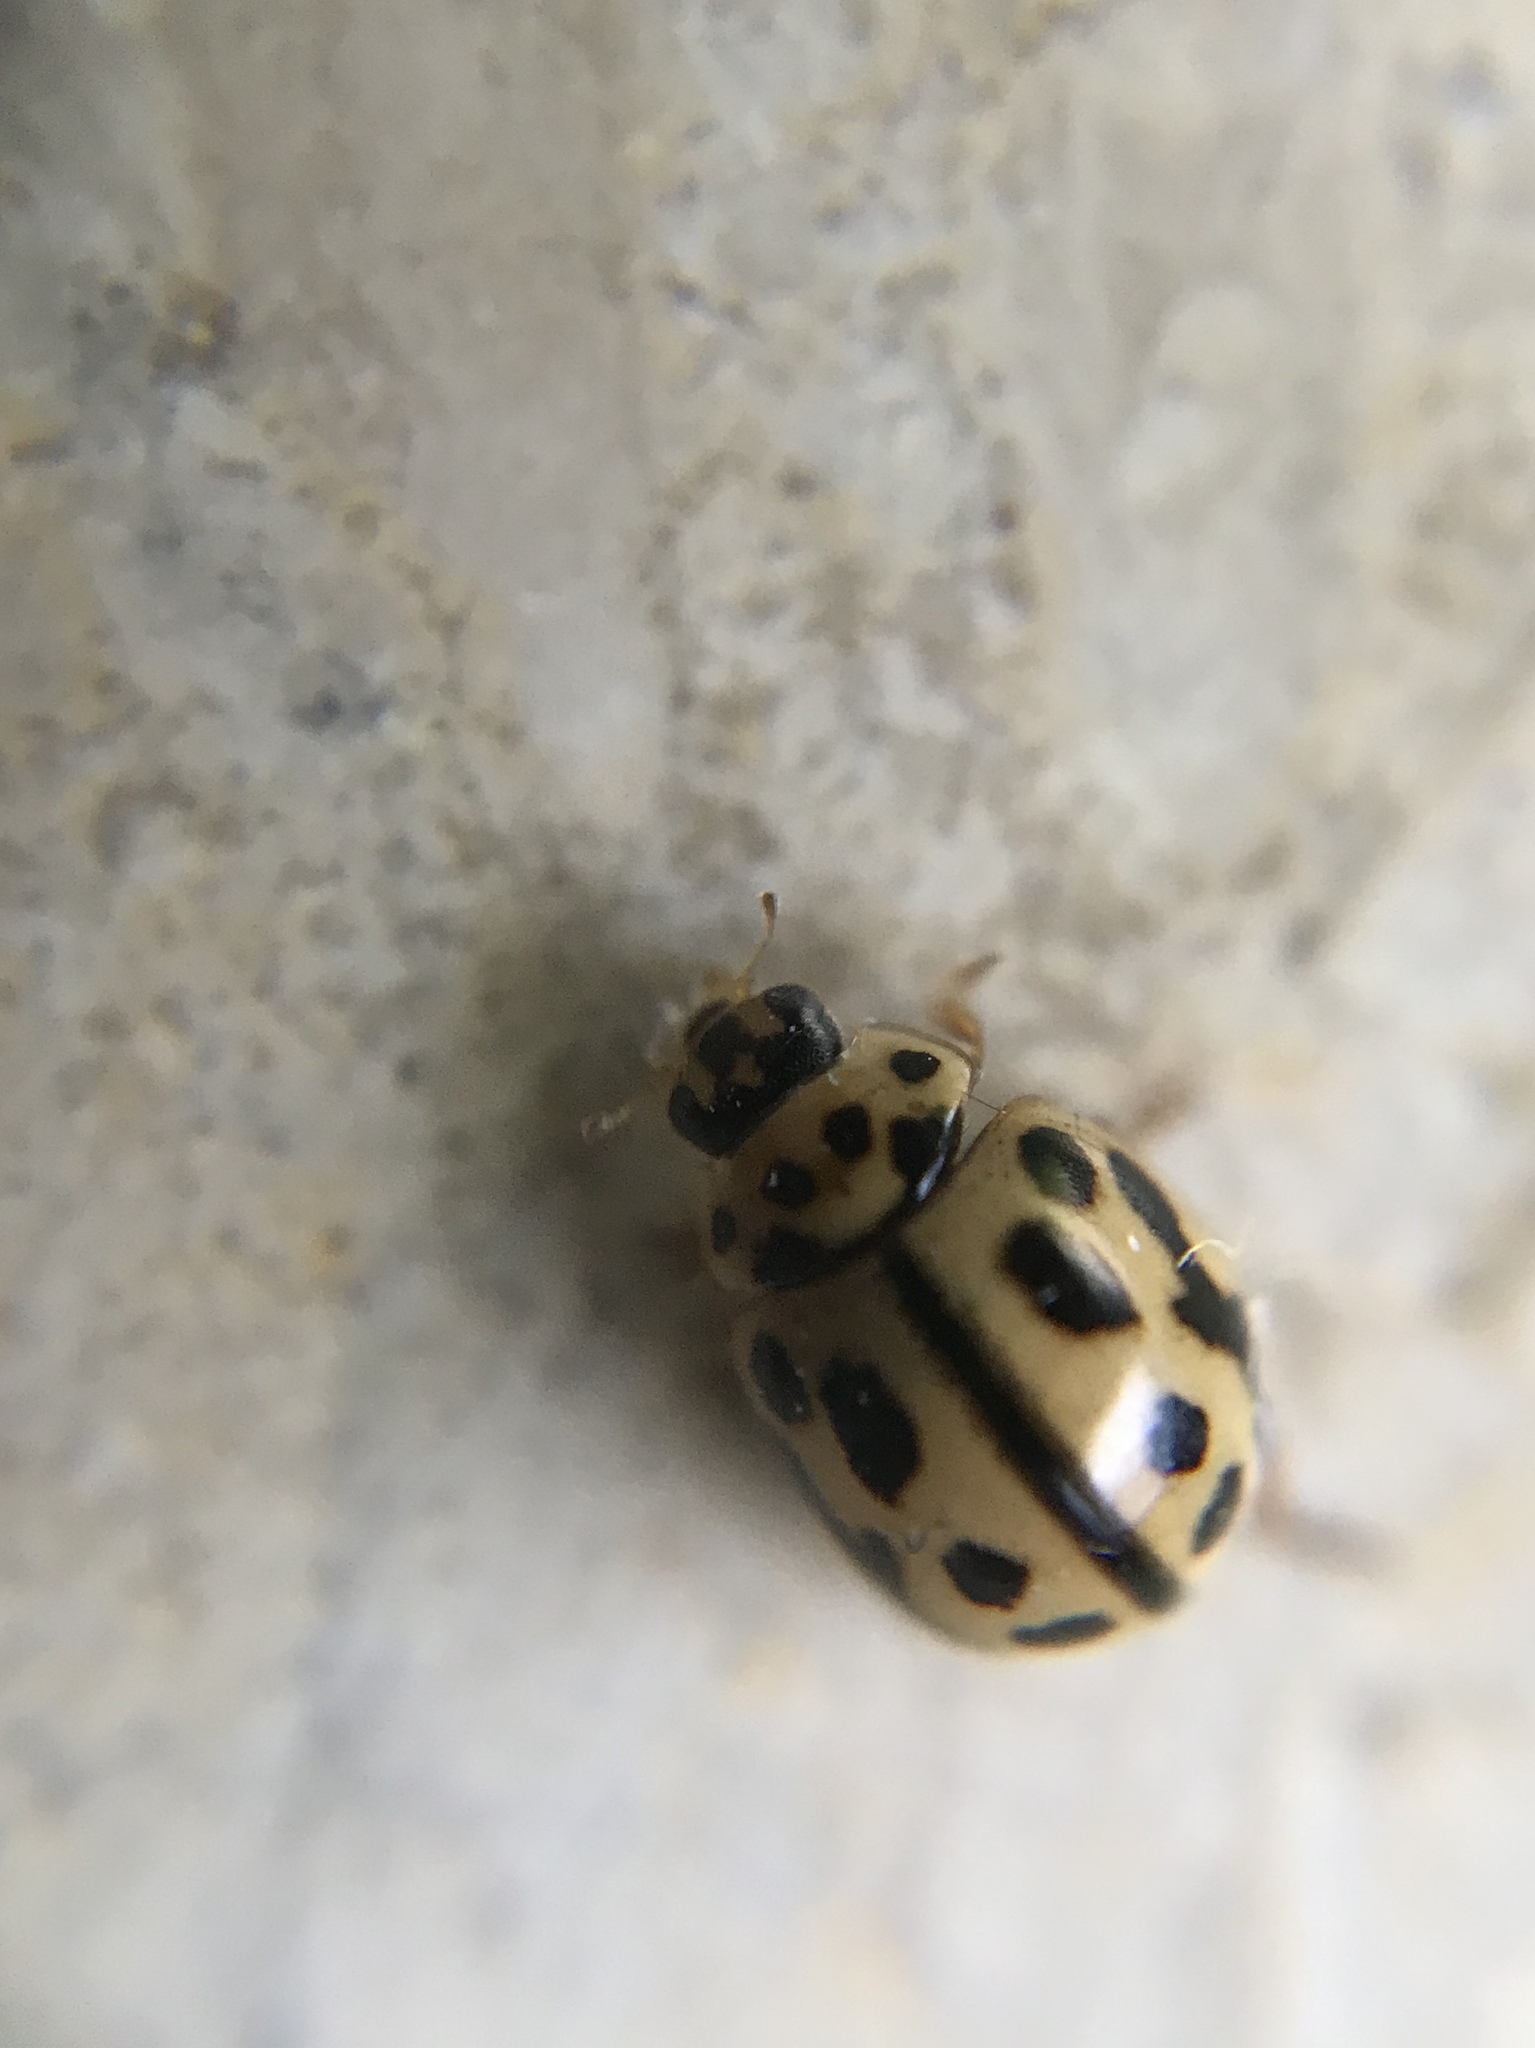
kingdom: Animalia
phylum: Arthropoda
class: Insecta
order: Coleoptera
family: Coccinellidae
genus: Tytthaspis
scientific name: Tytthaspis sedecimpunctata
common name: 16-spot ladybird
